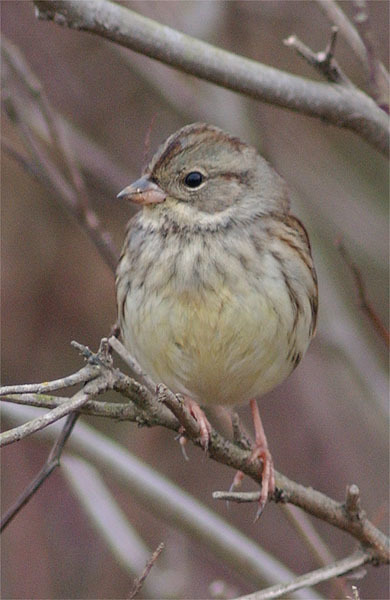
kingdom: Animalia
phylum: Chordata
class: Aves
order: Passeriformes
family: Emberizidae
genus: Emberiza
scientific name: Emberiza spodocephala
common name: Black-faced bunting
